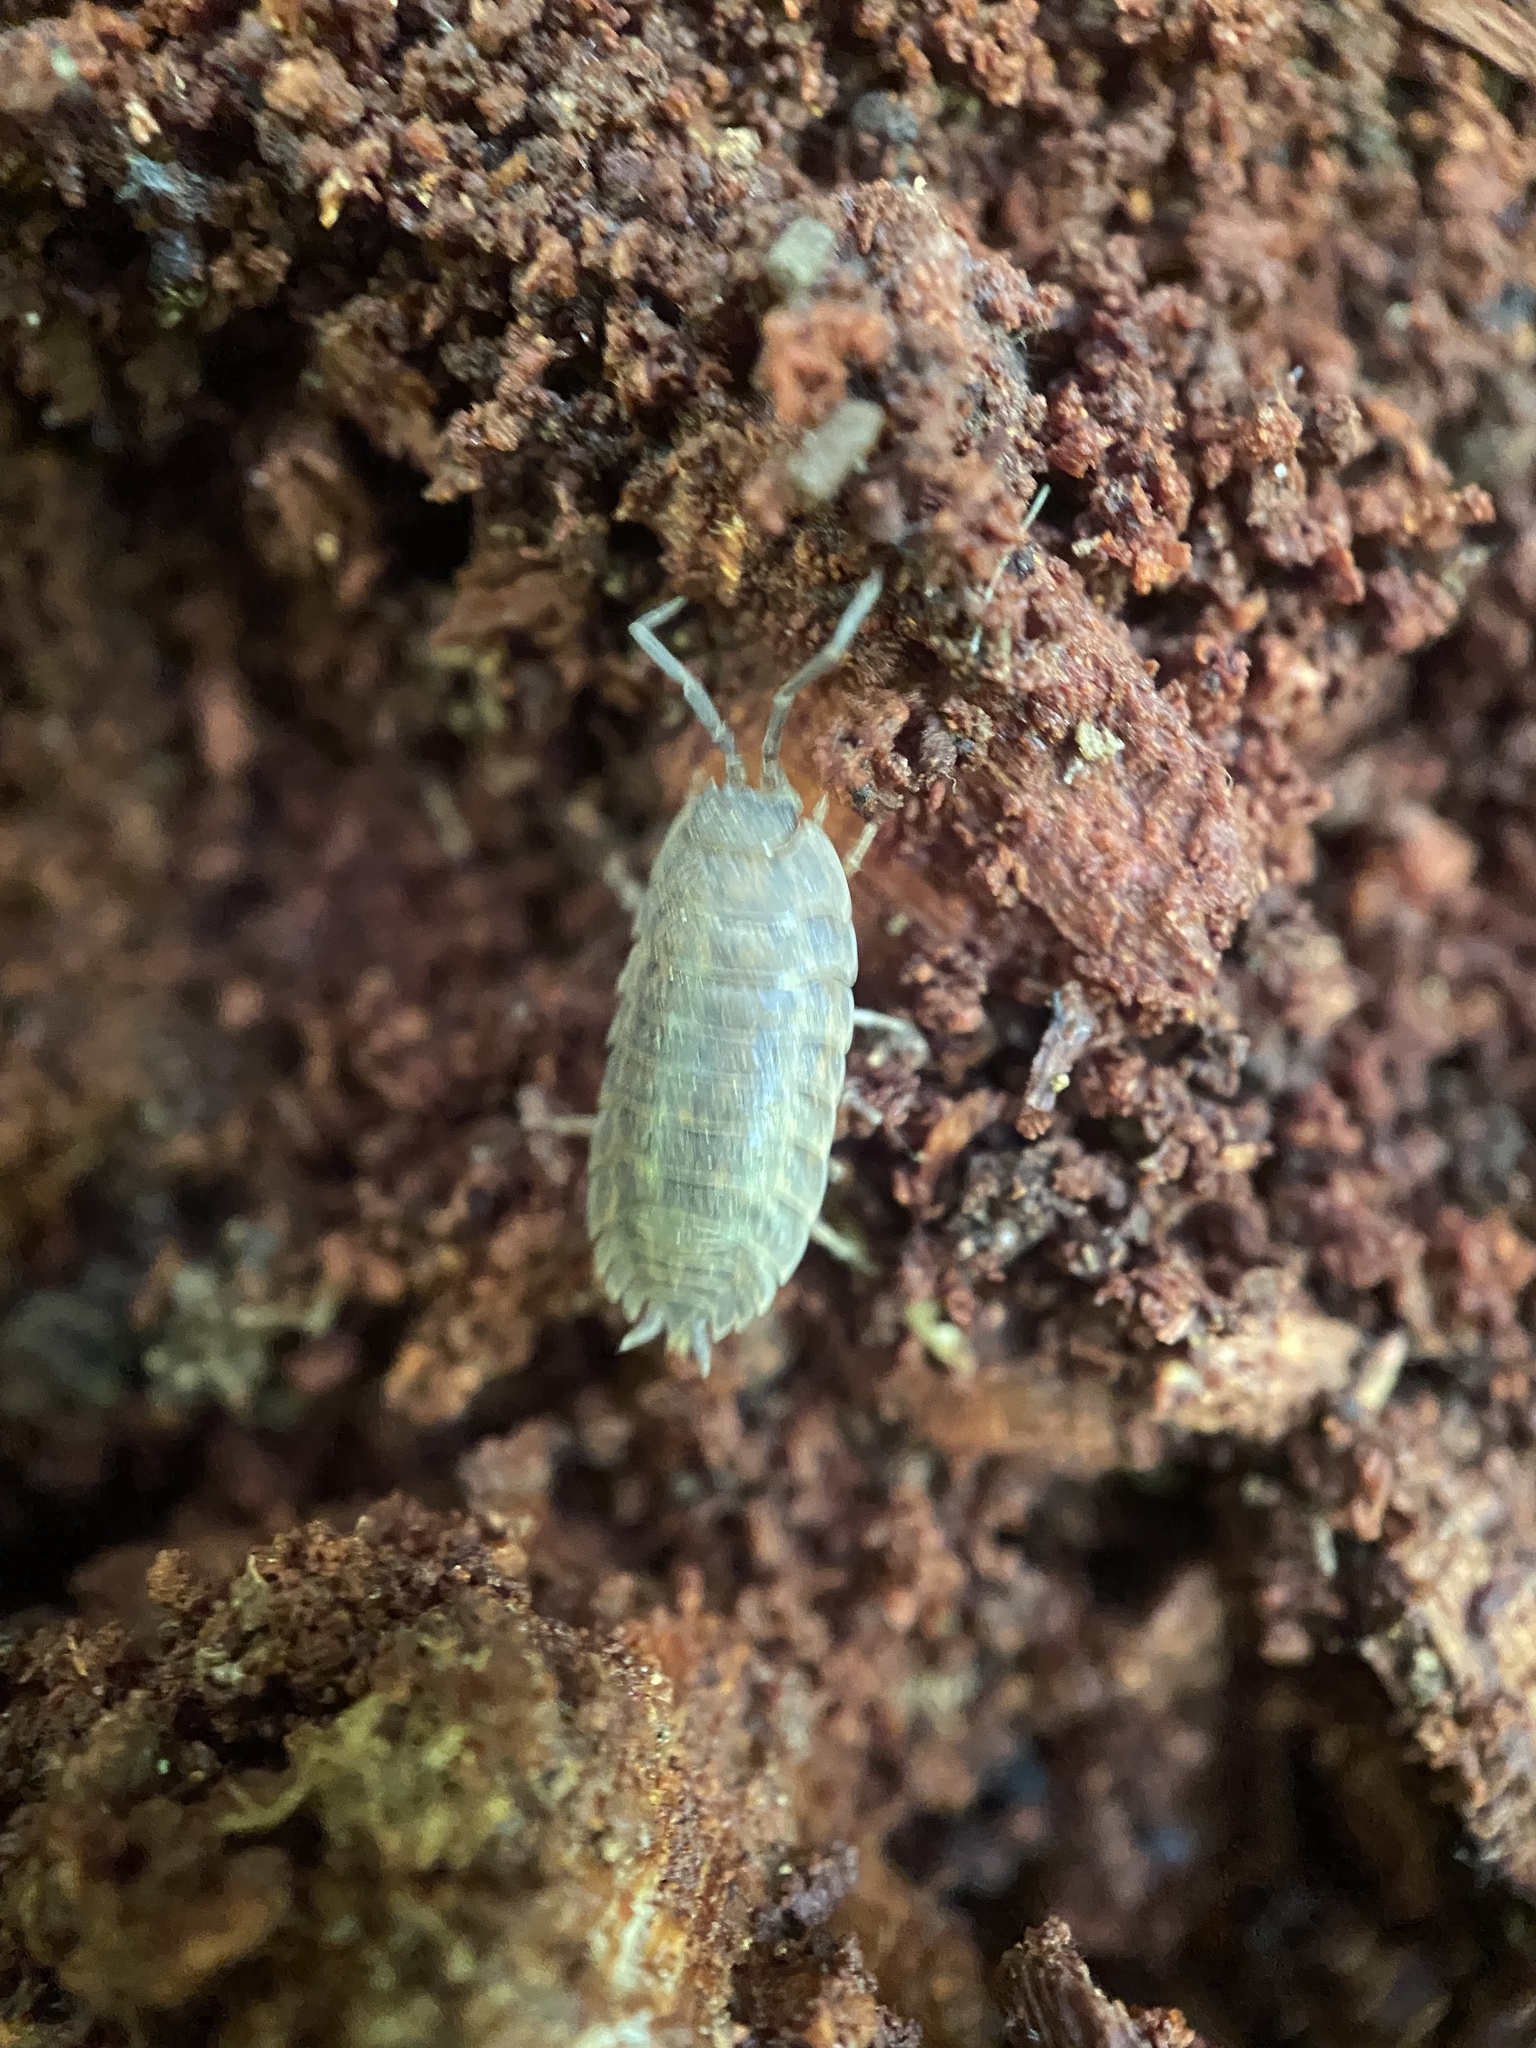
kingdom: Animalia
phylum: Arthropoda
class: Malacostraca
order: Isopoda
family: Trachelipodidae
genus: Trachelipus
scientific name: Trachelipus rathkii
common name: Isopod
